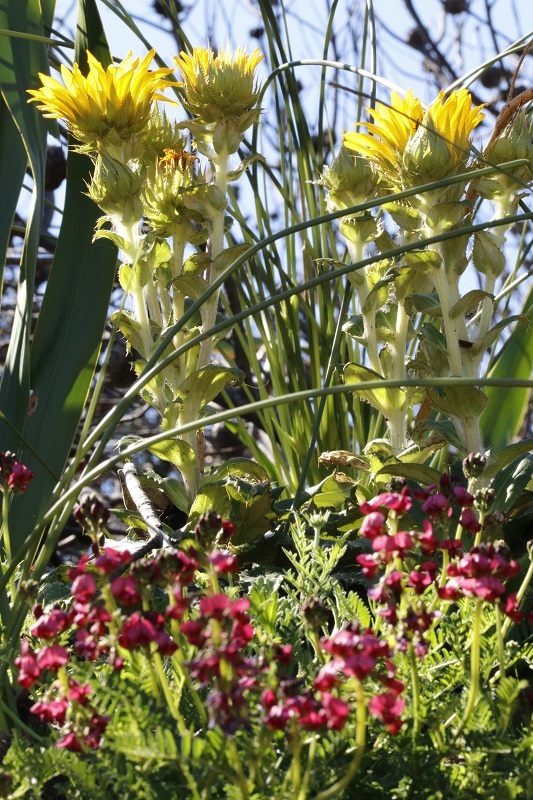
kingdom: Plantae
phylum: Tracheophyta
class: Magnoliopsida
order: Asterales
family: Asteraceae
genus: Berkheya
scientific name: Berkheya armata
